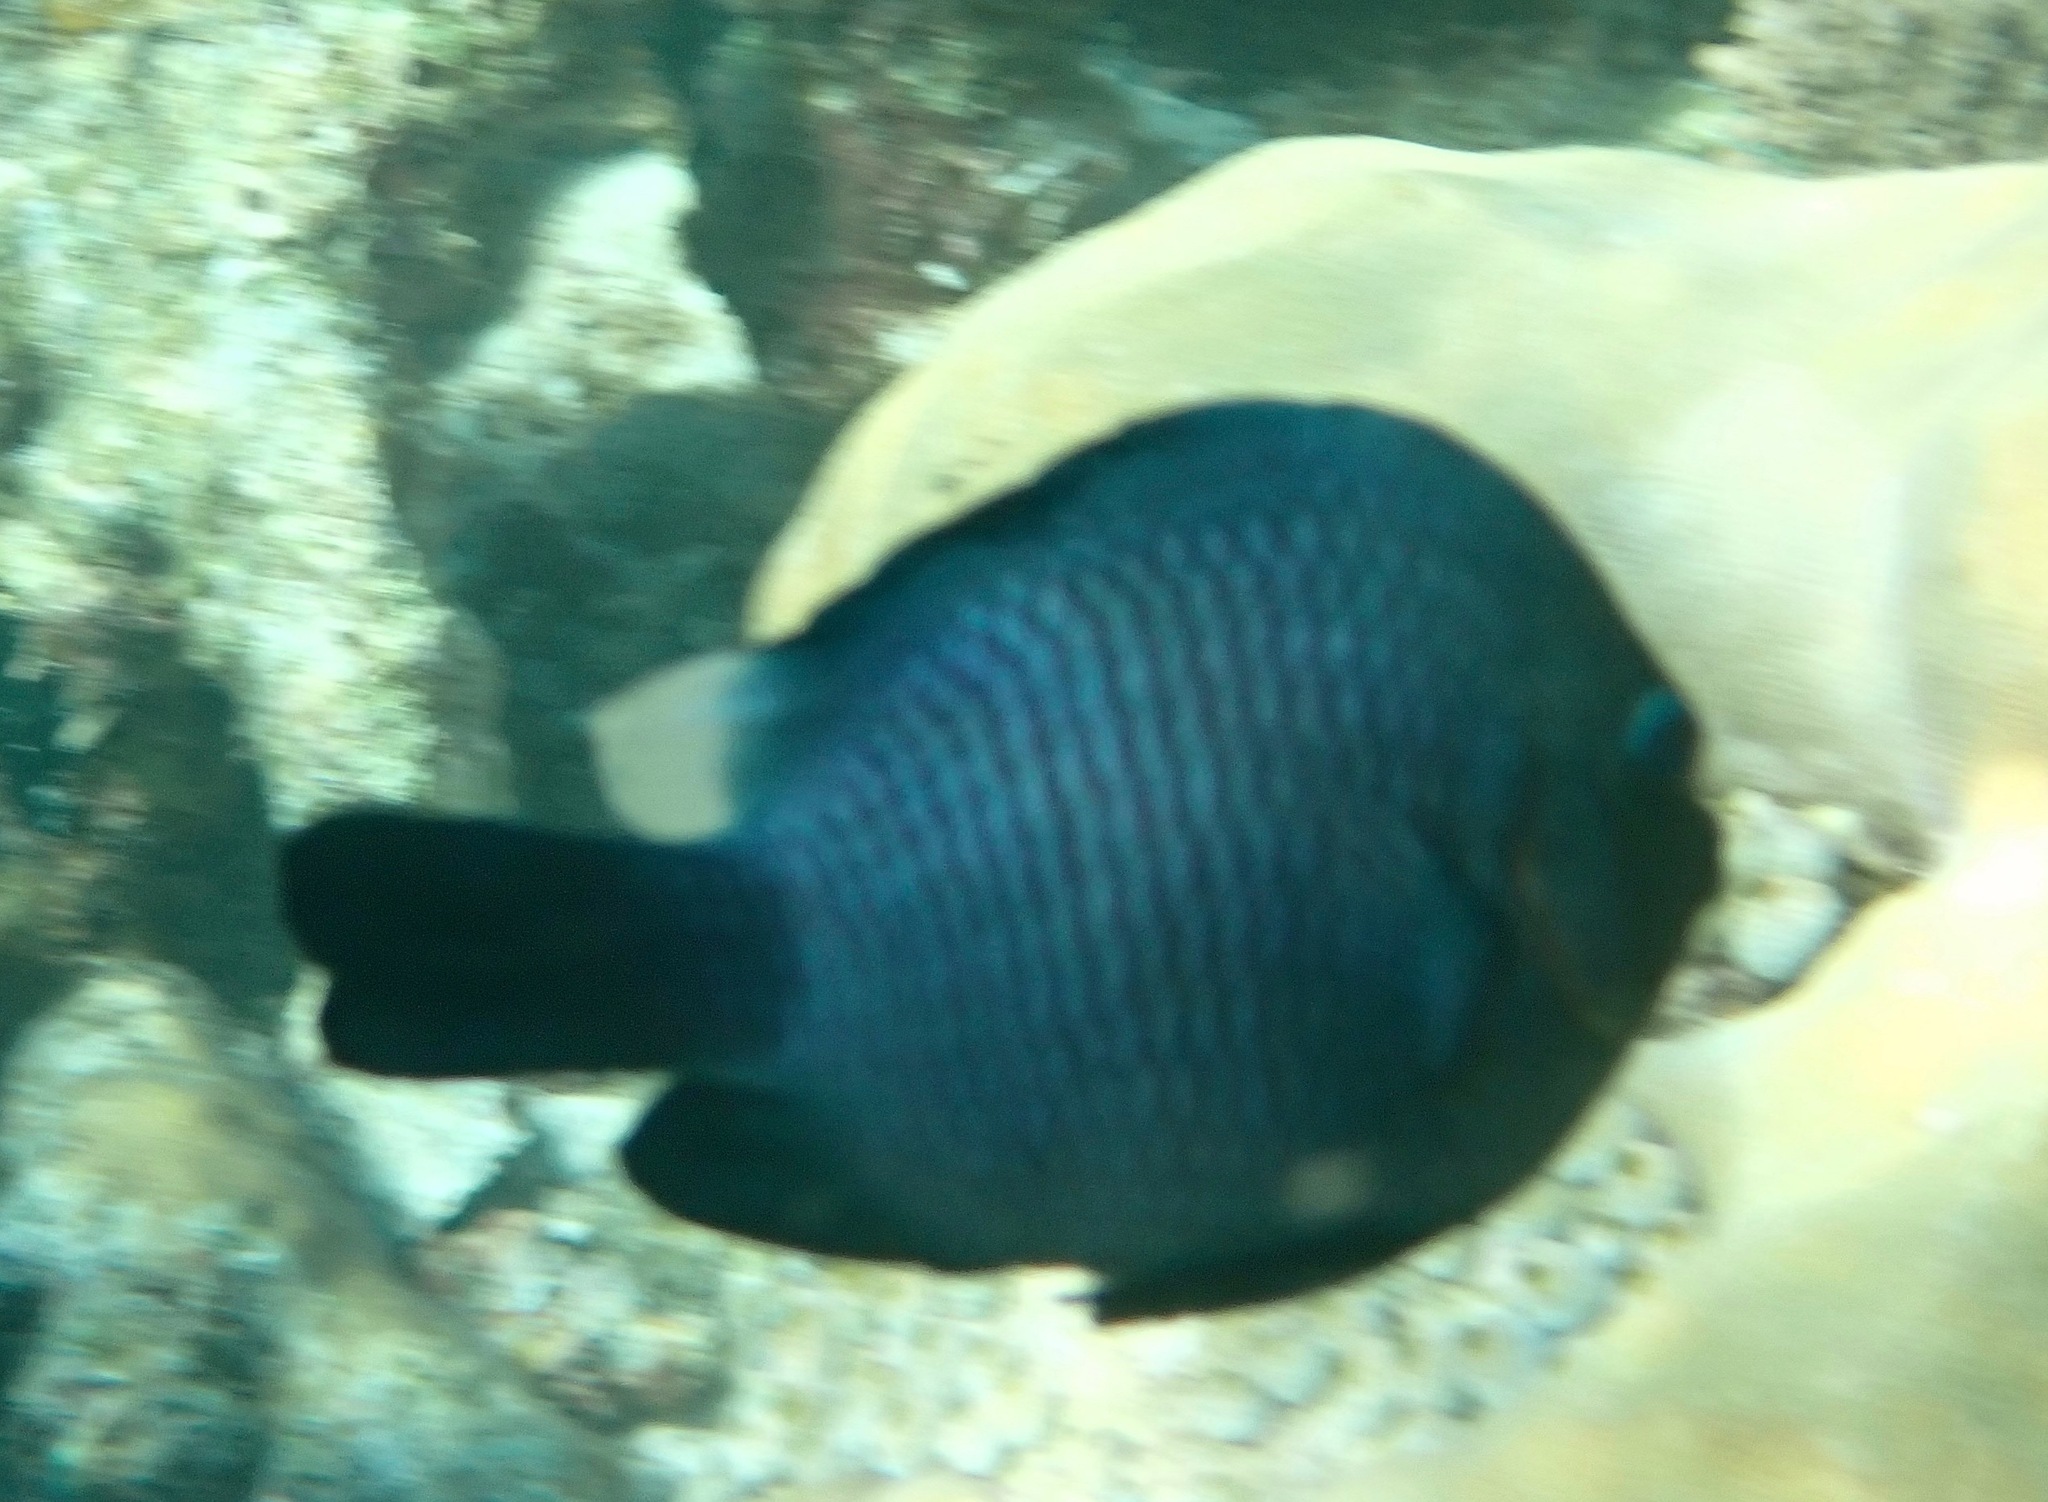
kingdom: Animalia
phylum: Chordata
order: Perciformes
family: Pomacentridae
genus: Dascyllus
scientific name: Dascyllus trimaculatus
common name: Threespot dascyllus
